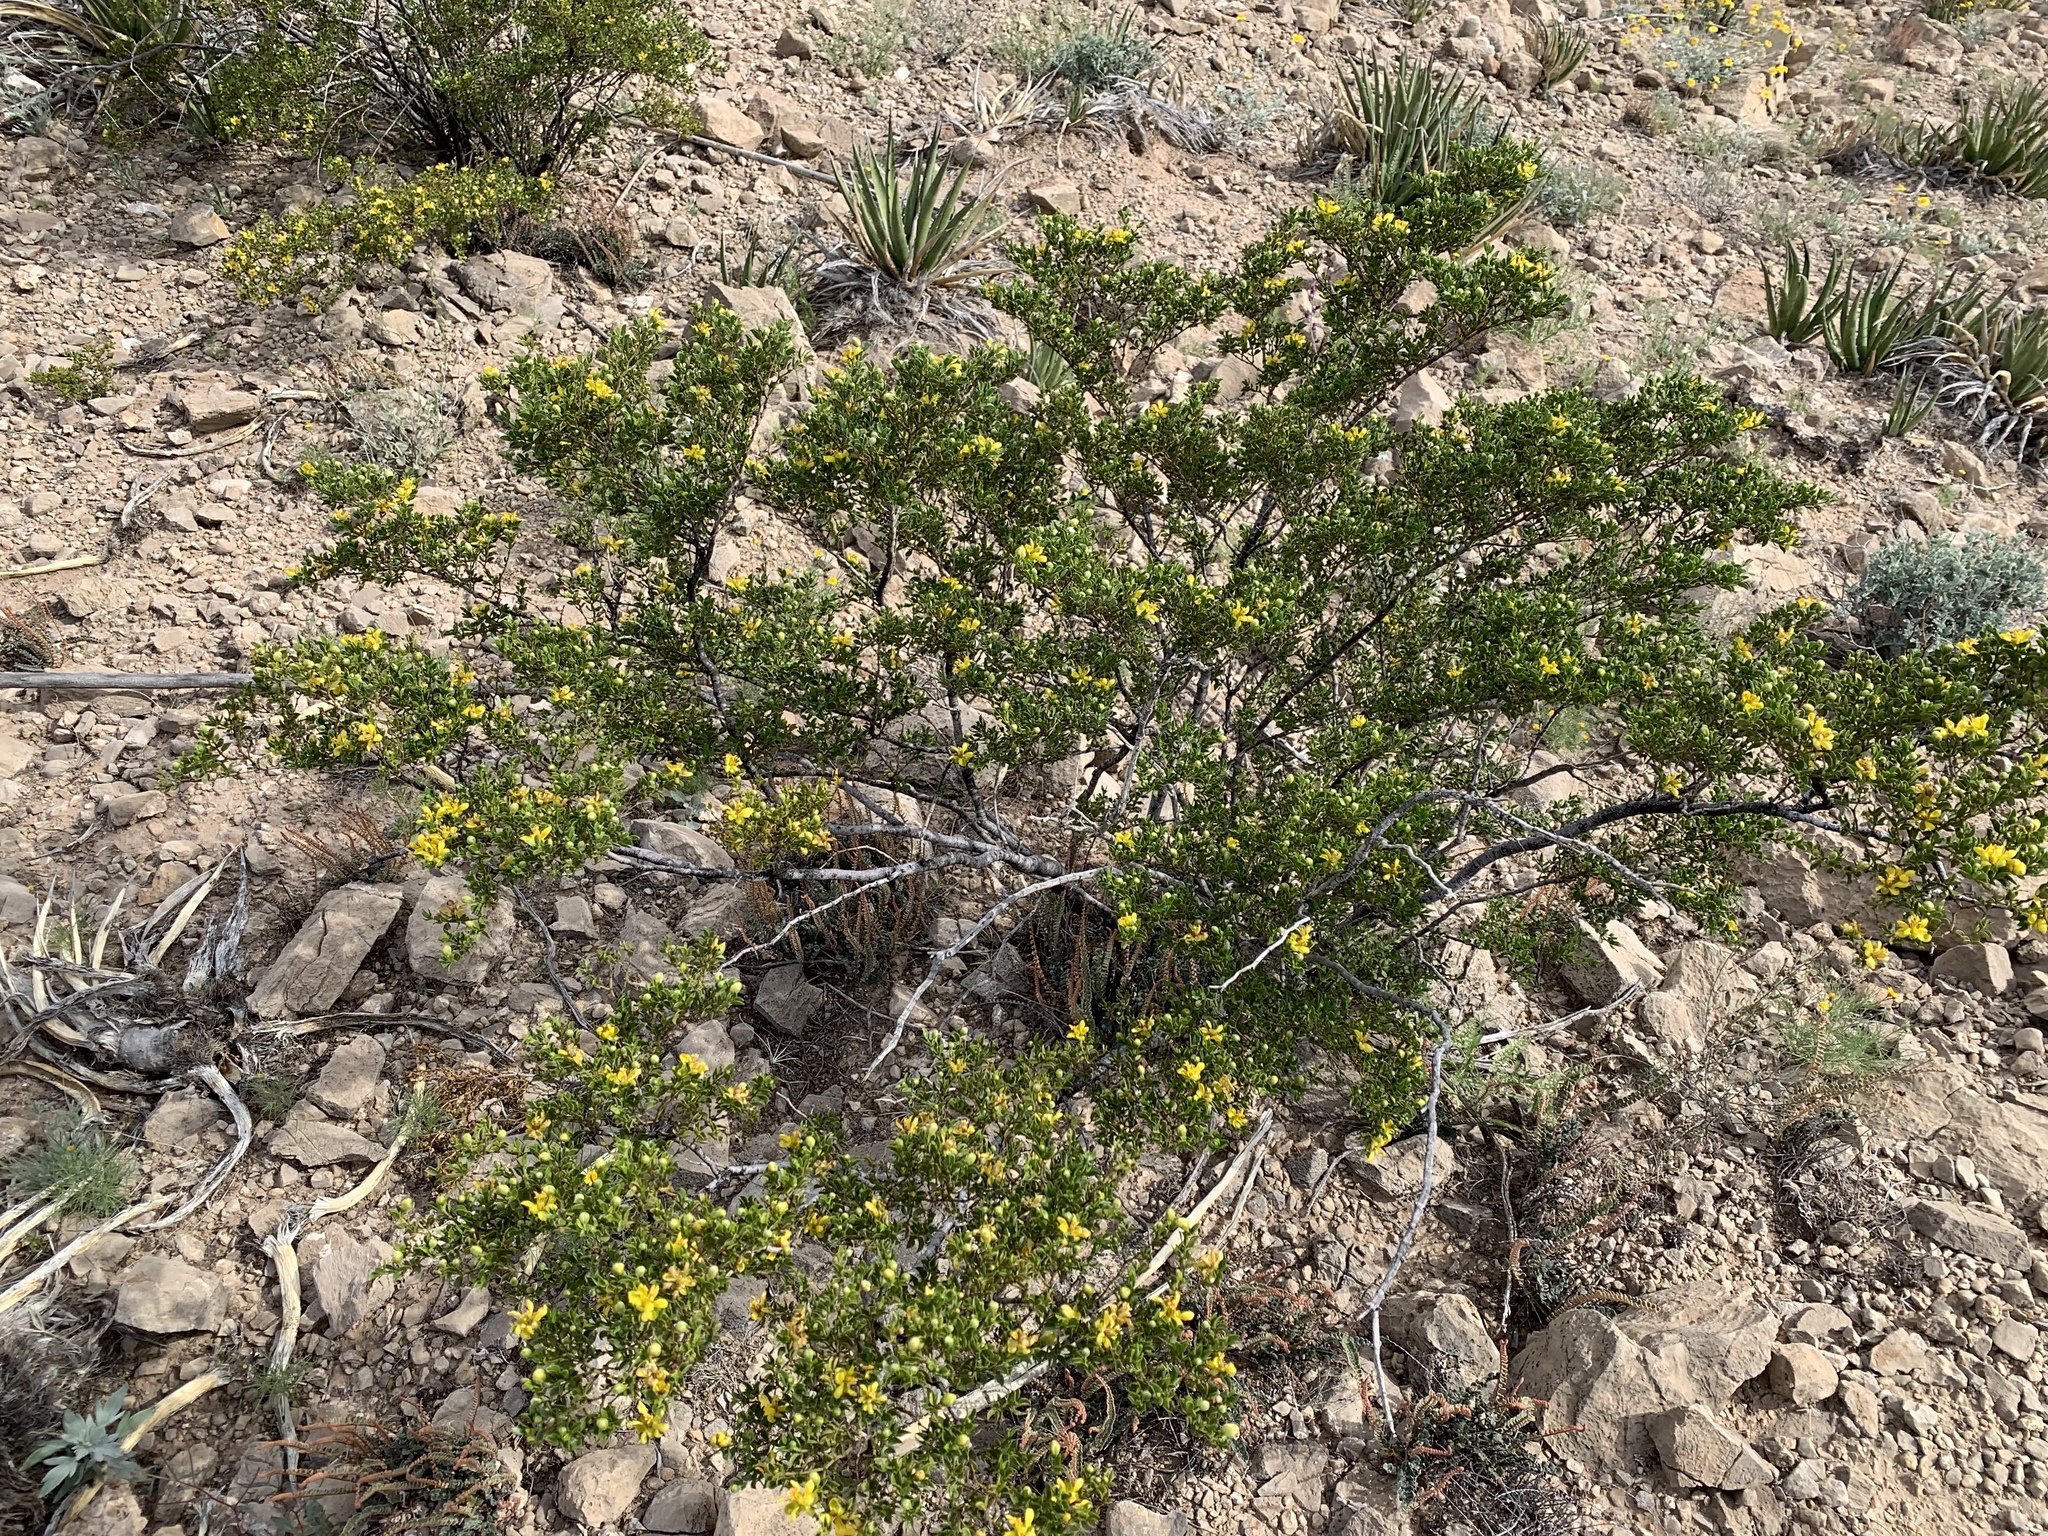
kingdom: Plantae
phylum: Tracheophyta
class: Magnoliopsida
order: Zygophyllales
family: Zygophyllaceae
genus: Larrea
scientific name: Larrea tridentata
